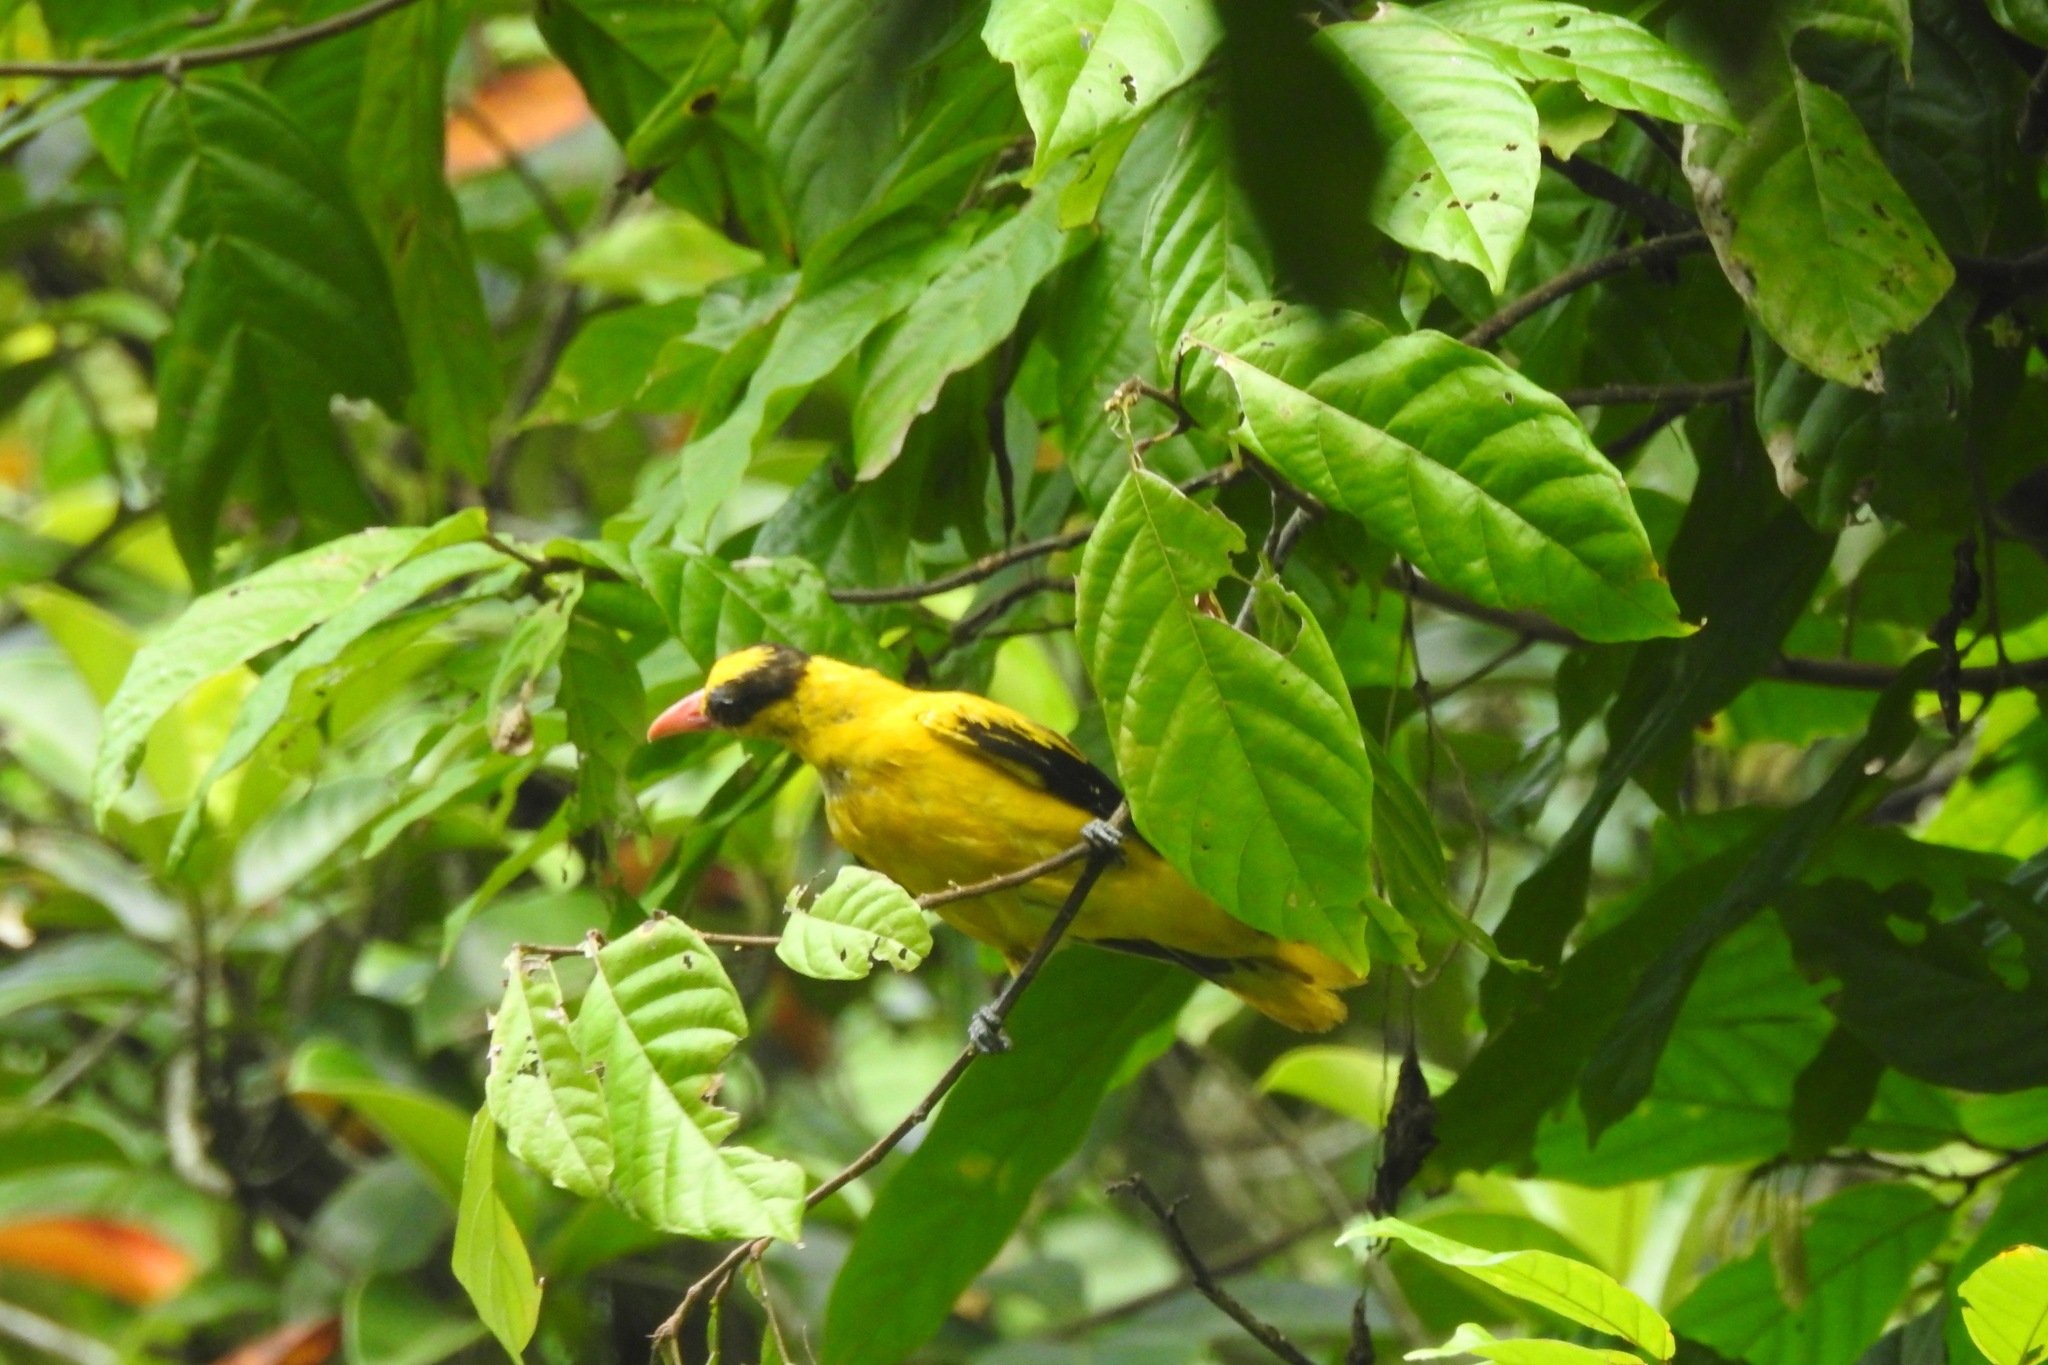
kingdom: Animalia
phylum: Chordata
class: Aves
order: Passeriformes
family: Oriolidae
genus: Oriolus
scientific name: Oriolus chinensis
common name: Black-naped oriole
